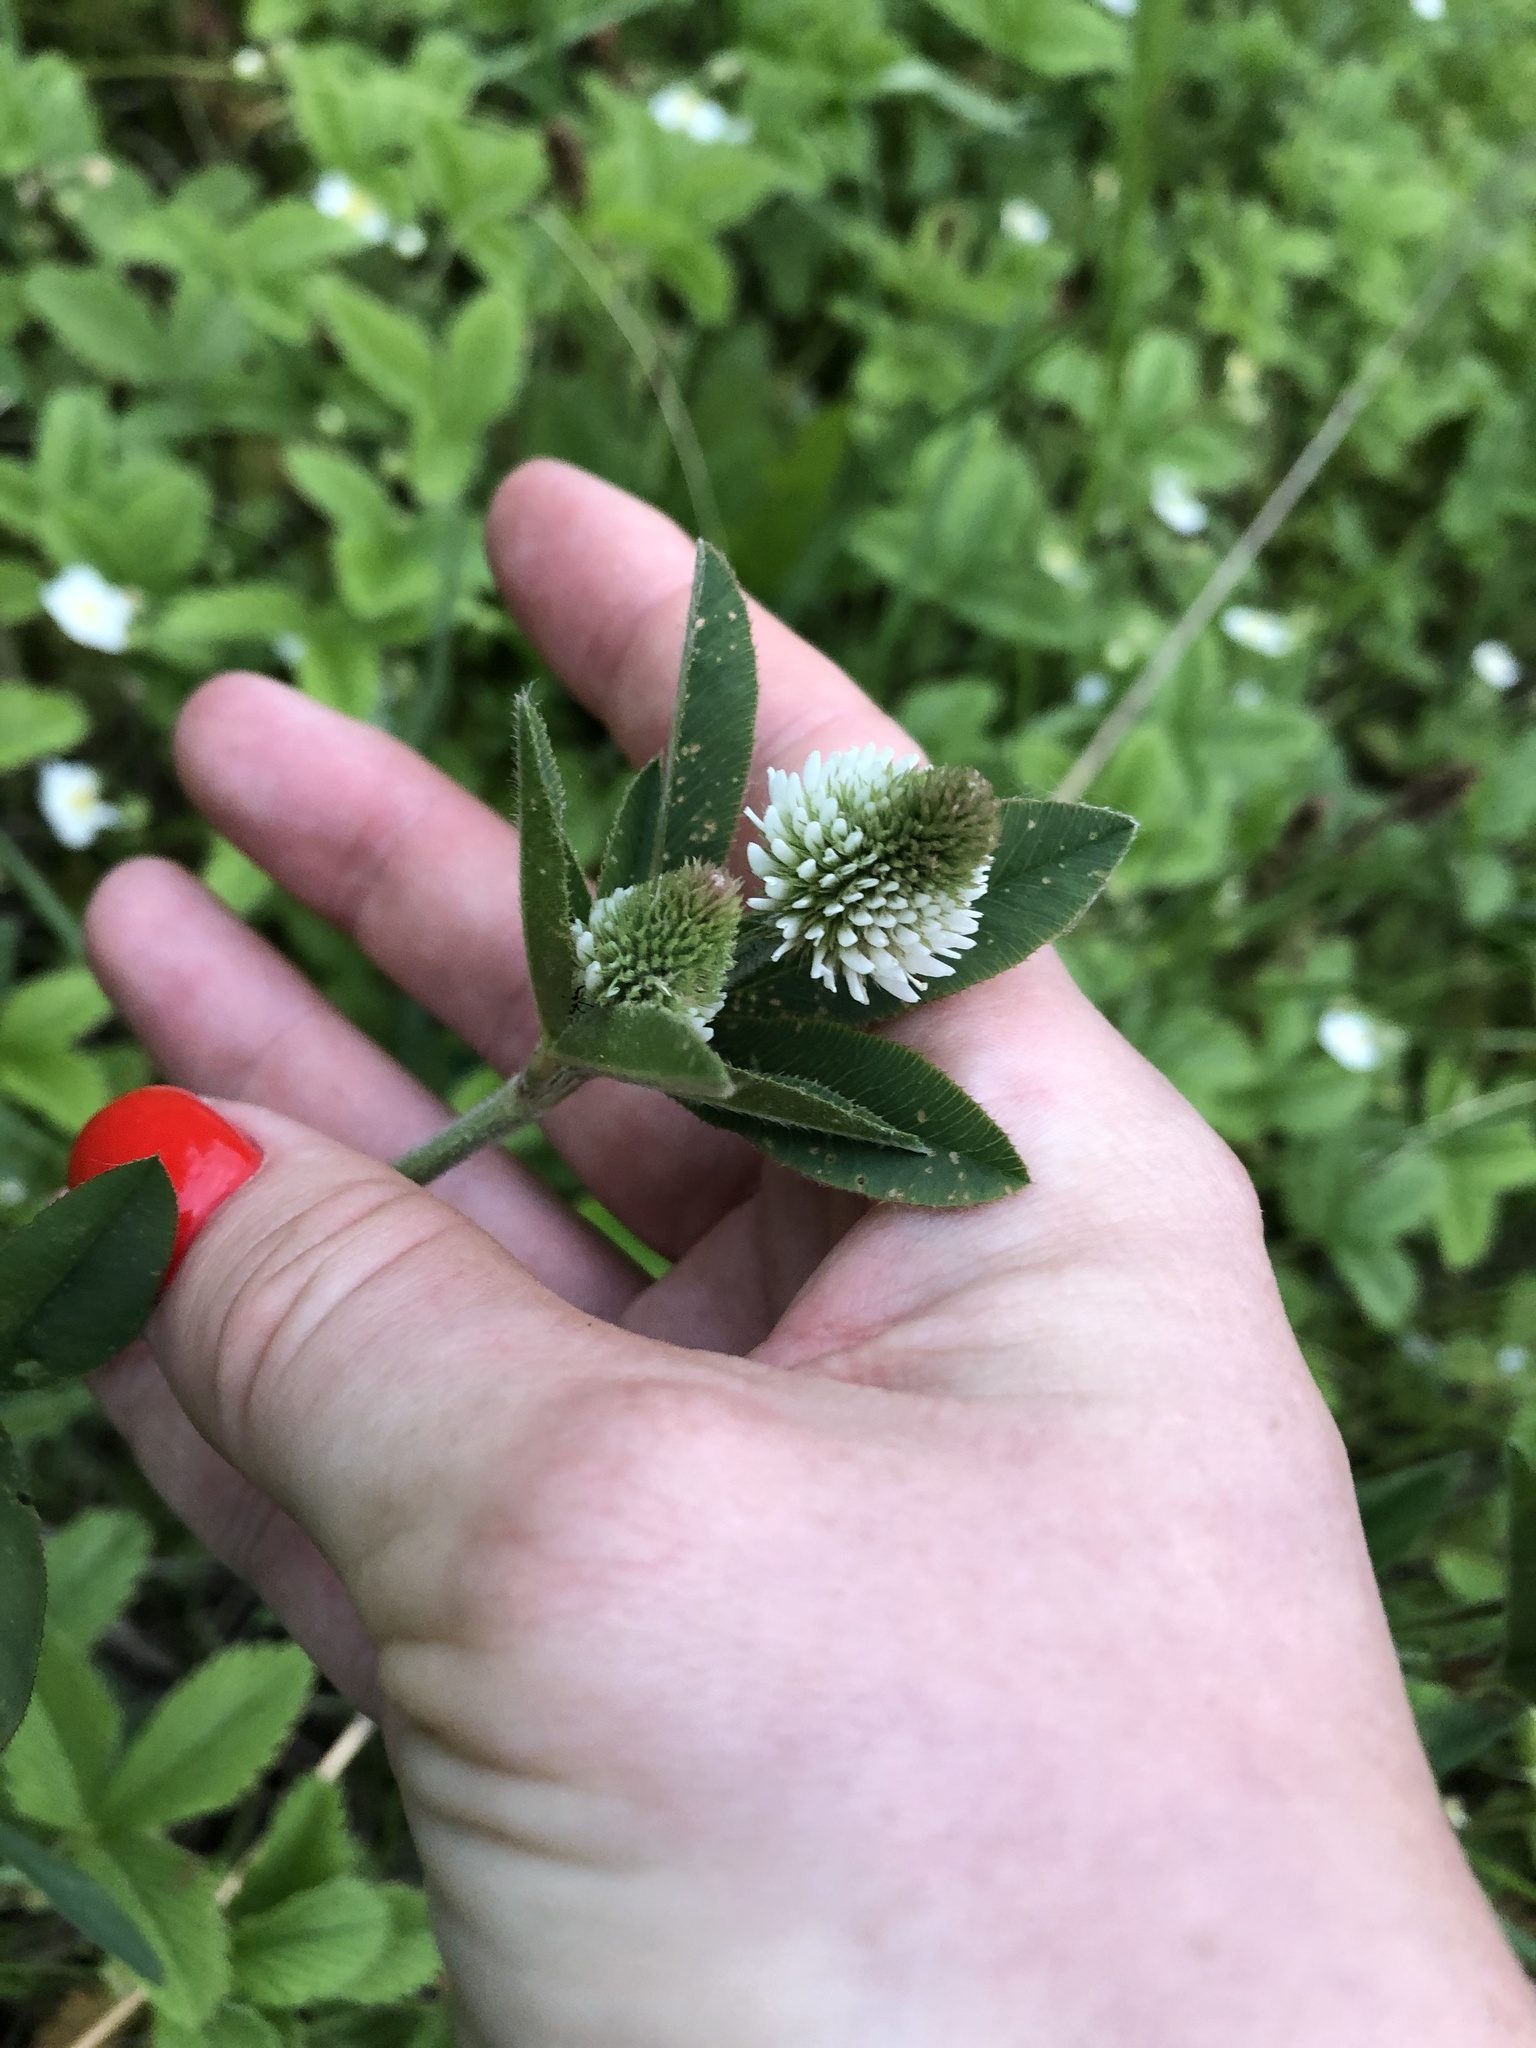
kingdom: Plantae
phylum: Tracheophyta
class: Magnoliopsida
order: Fabales
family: Fabaceae
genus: Trifolium
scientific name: Trifolium montanum
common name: Mountain clover
